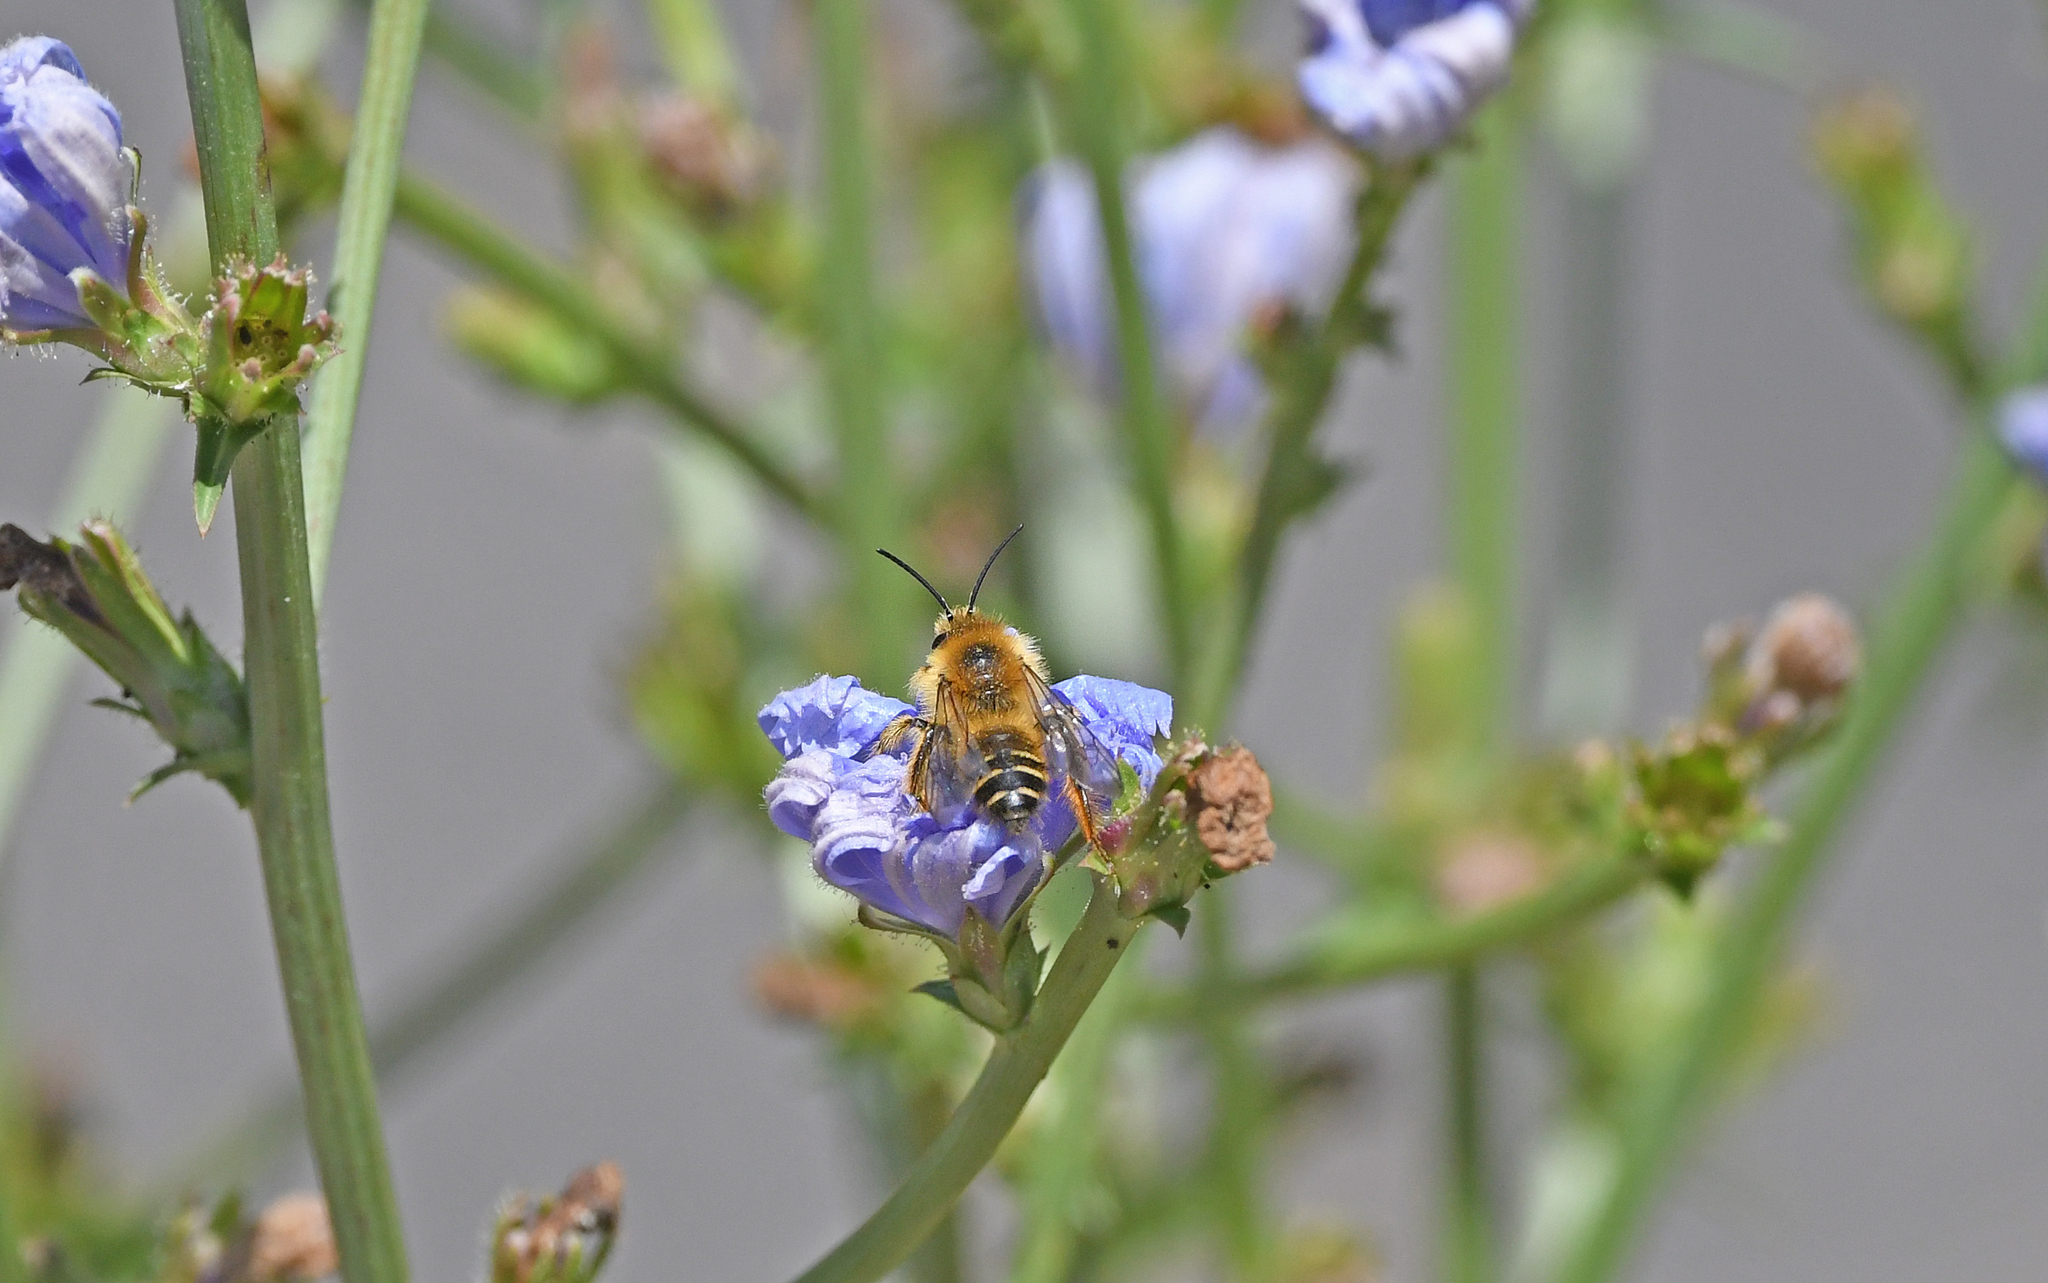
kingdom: Animalia
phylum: Arthropoda
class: Insecta
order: Hymenoptera
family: Melittidae
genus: Dasypoda
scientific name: Dasypoda hirtipes
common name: Pantaloon bee
